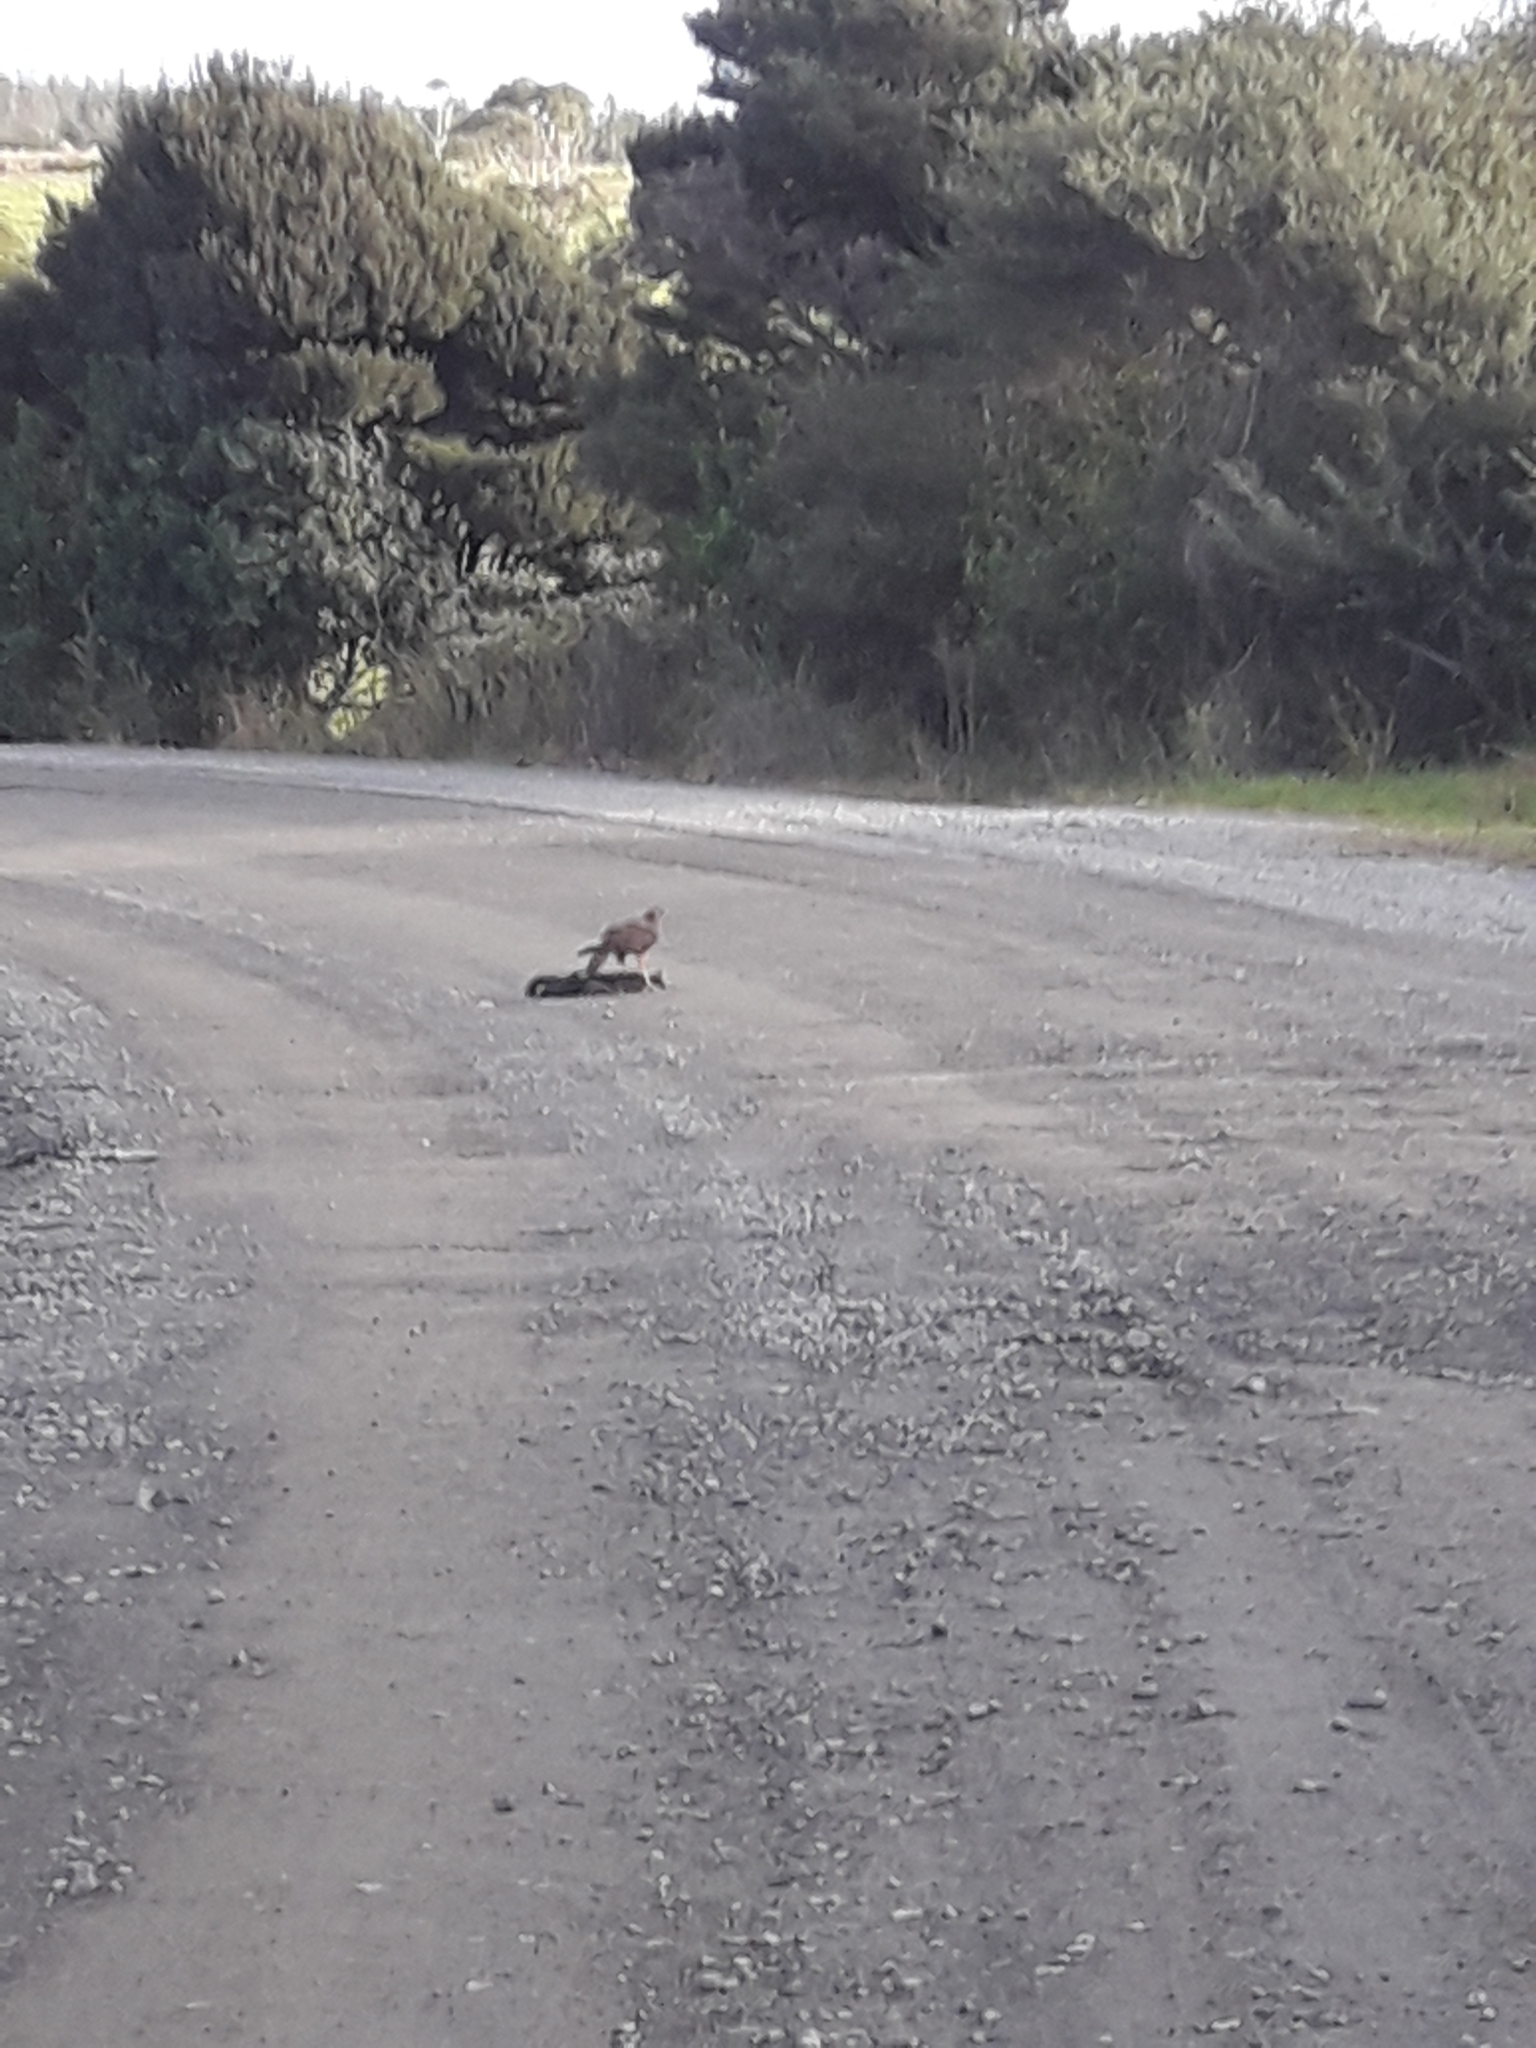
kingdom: Animalia
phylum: Chordata
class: Aves
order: Accipitriformes
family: Accipitridae
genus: Circus
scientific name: Circus approximans
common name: Swamp harrier
